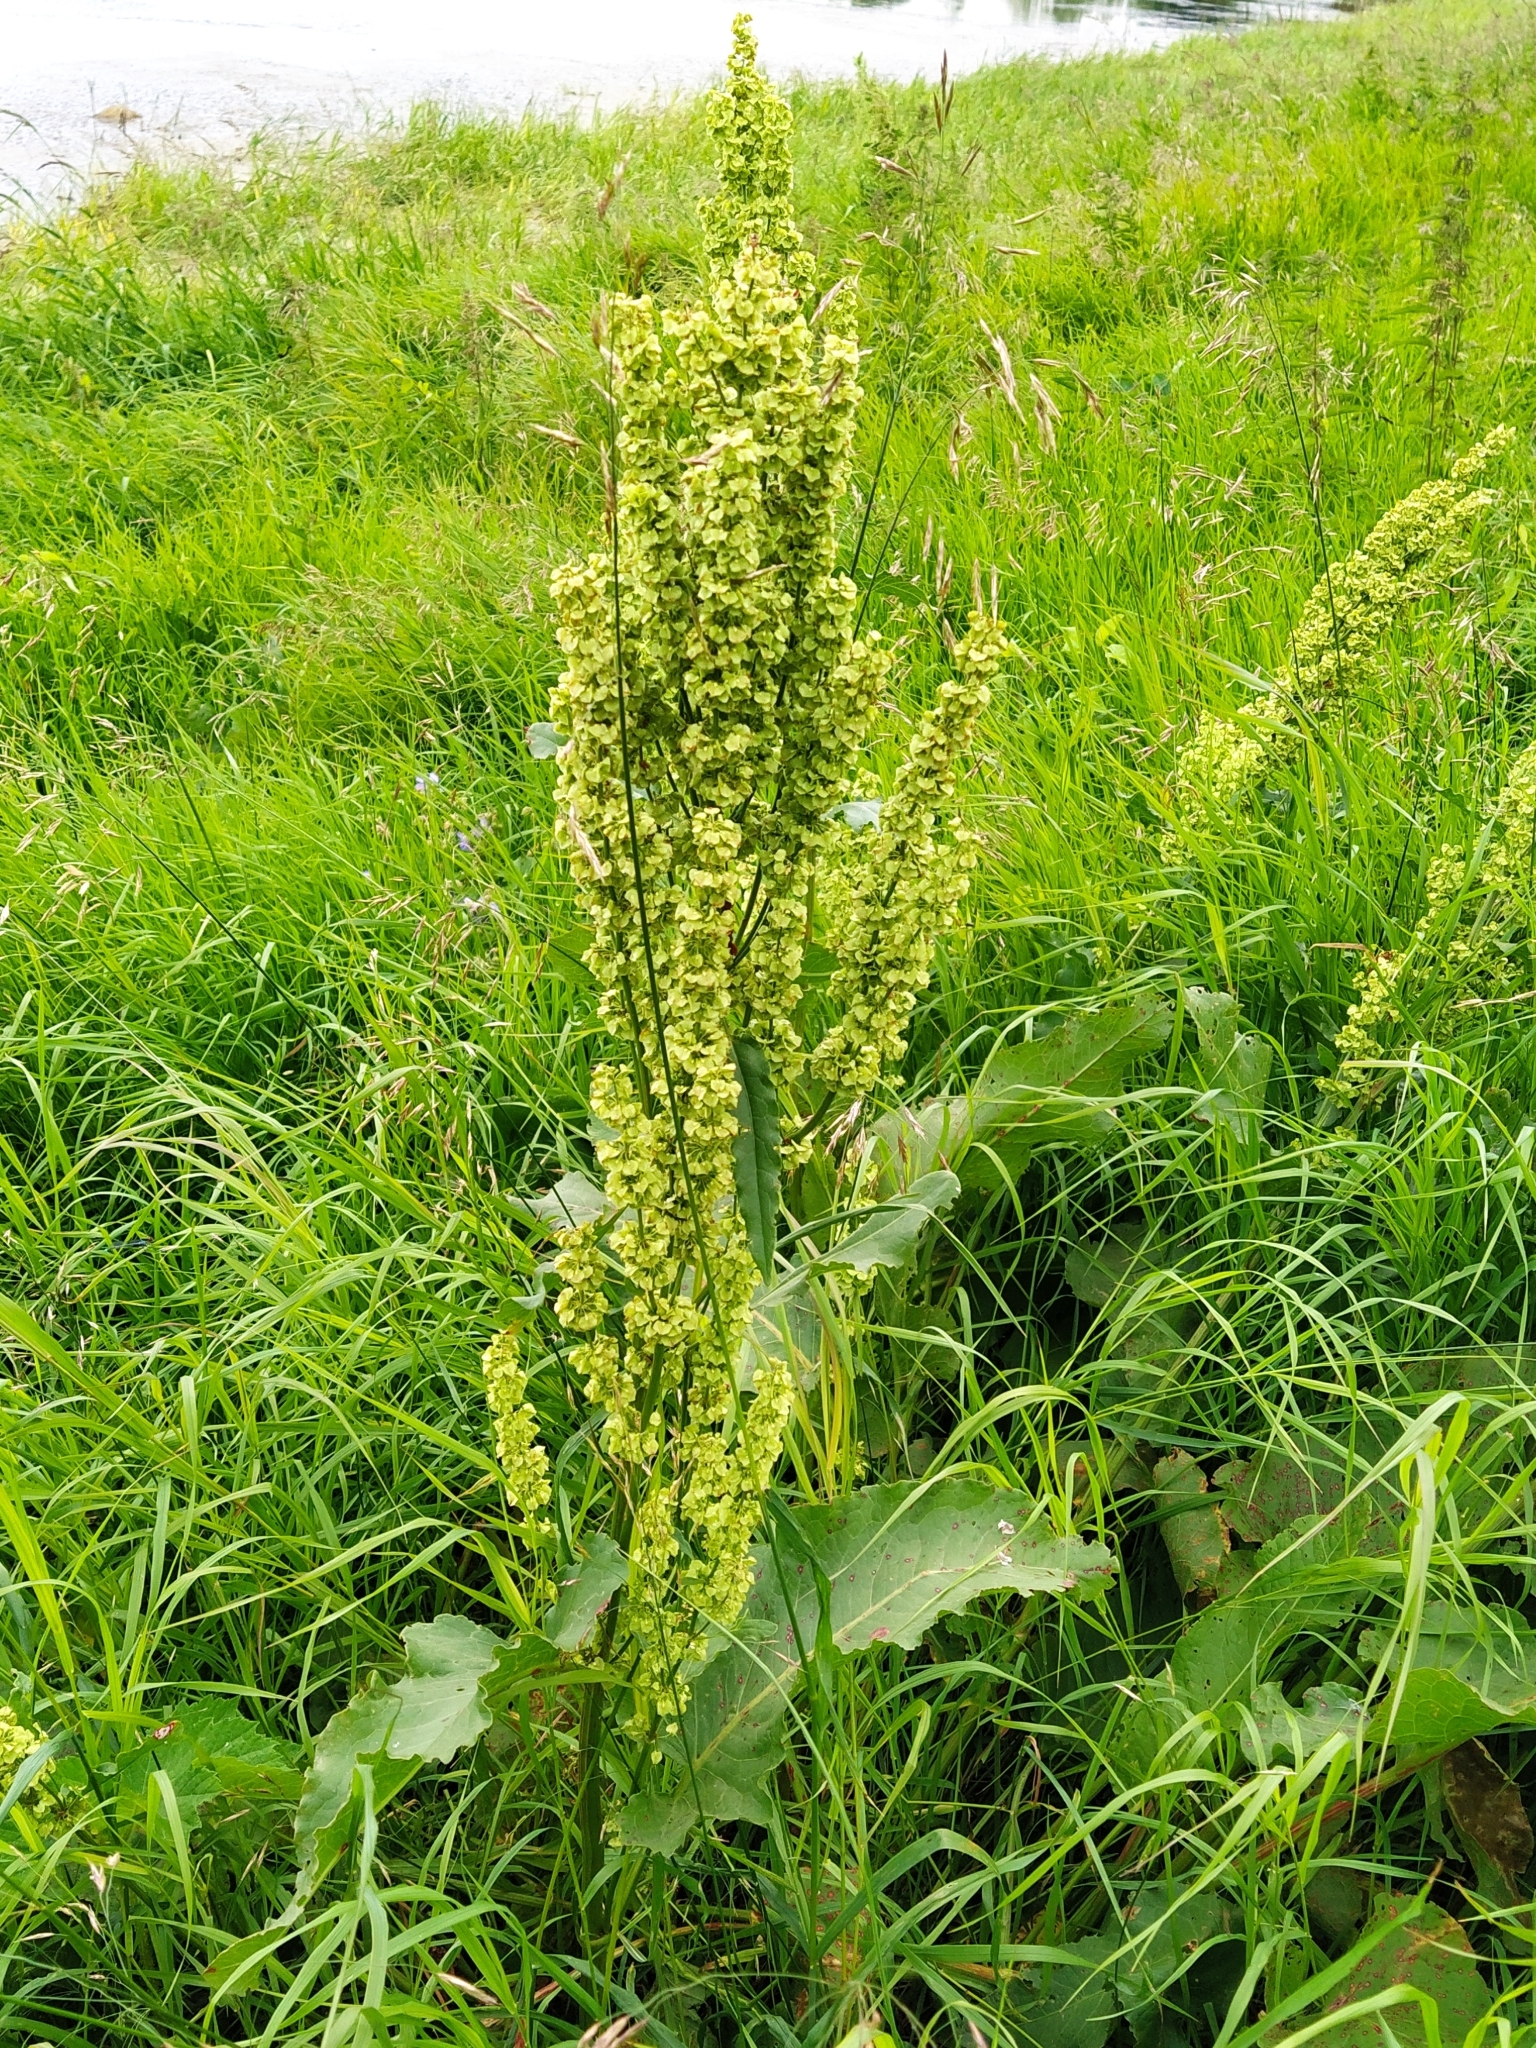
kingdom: Plantae
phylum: Tracheophyta
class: Magnoliopsida
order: Caryophyllales
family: Polygonaceae
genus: Rumex
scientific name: Rumex confertus
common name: Russian dock
